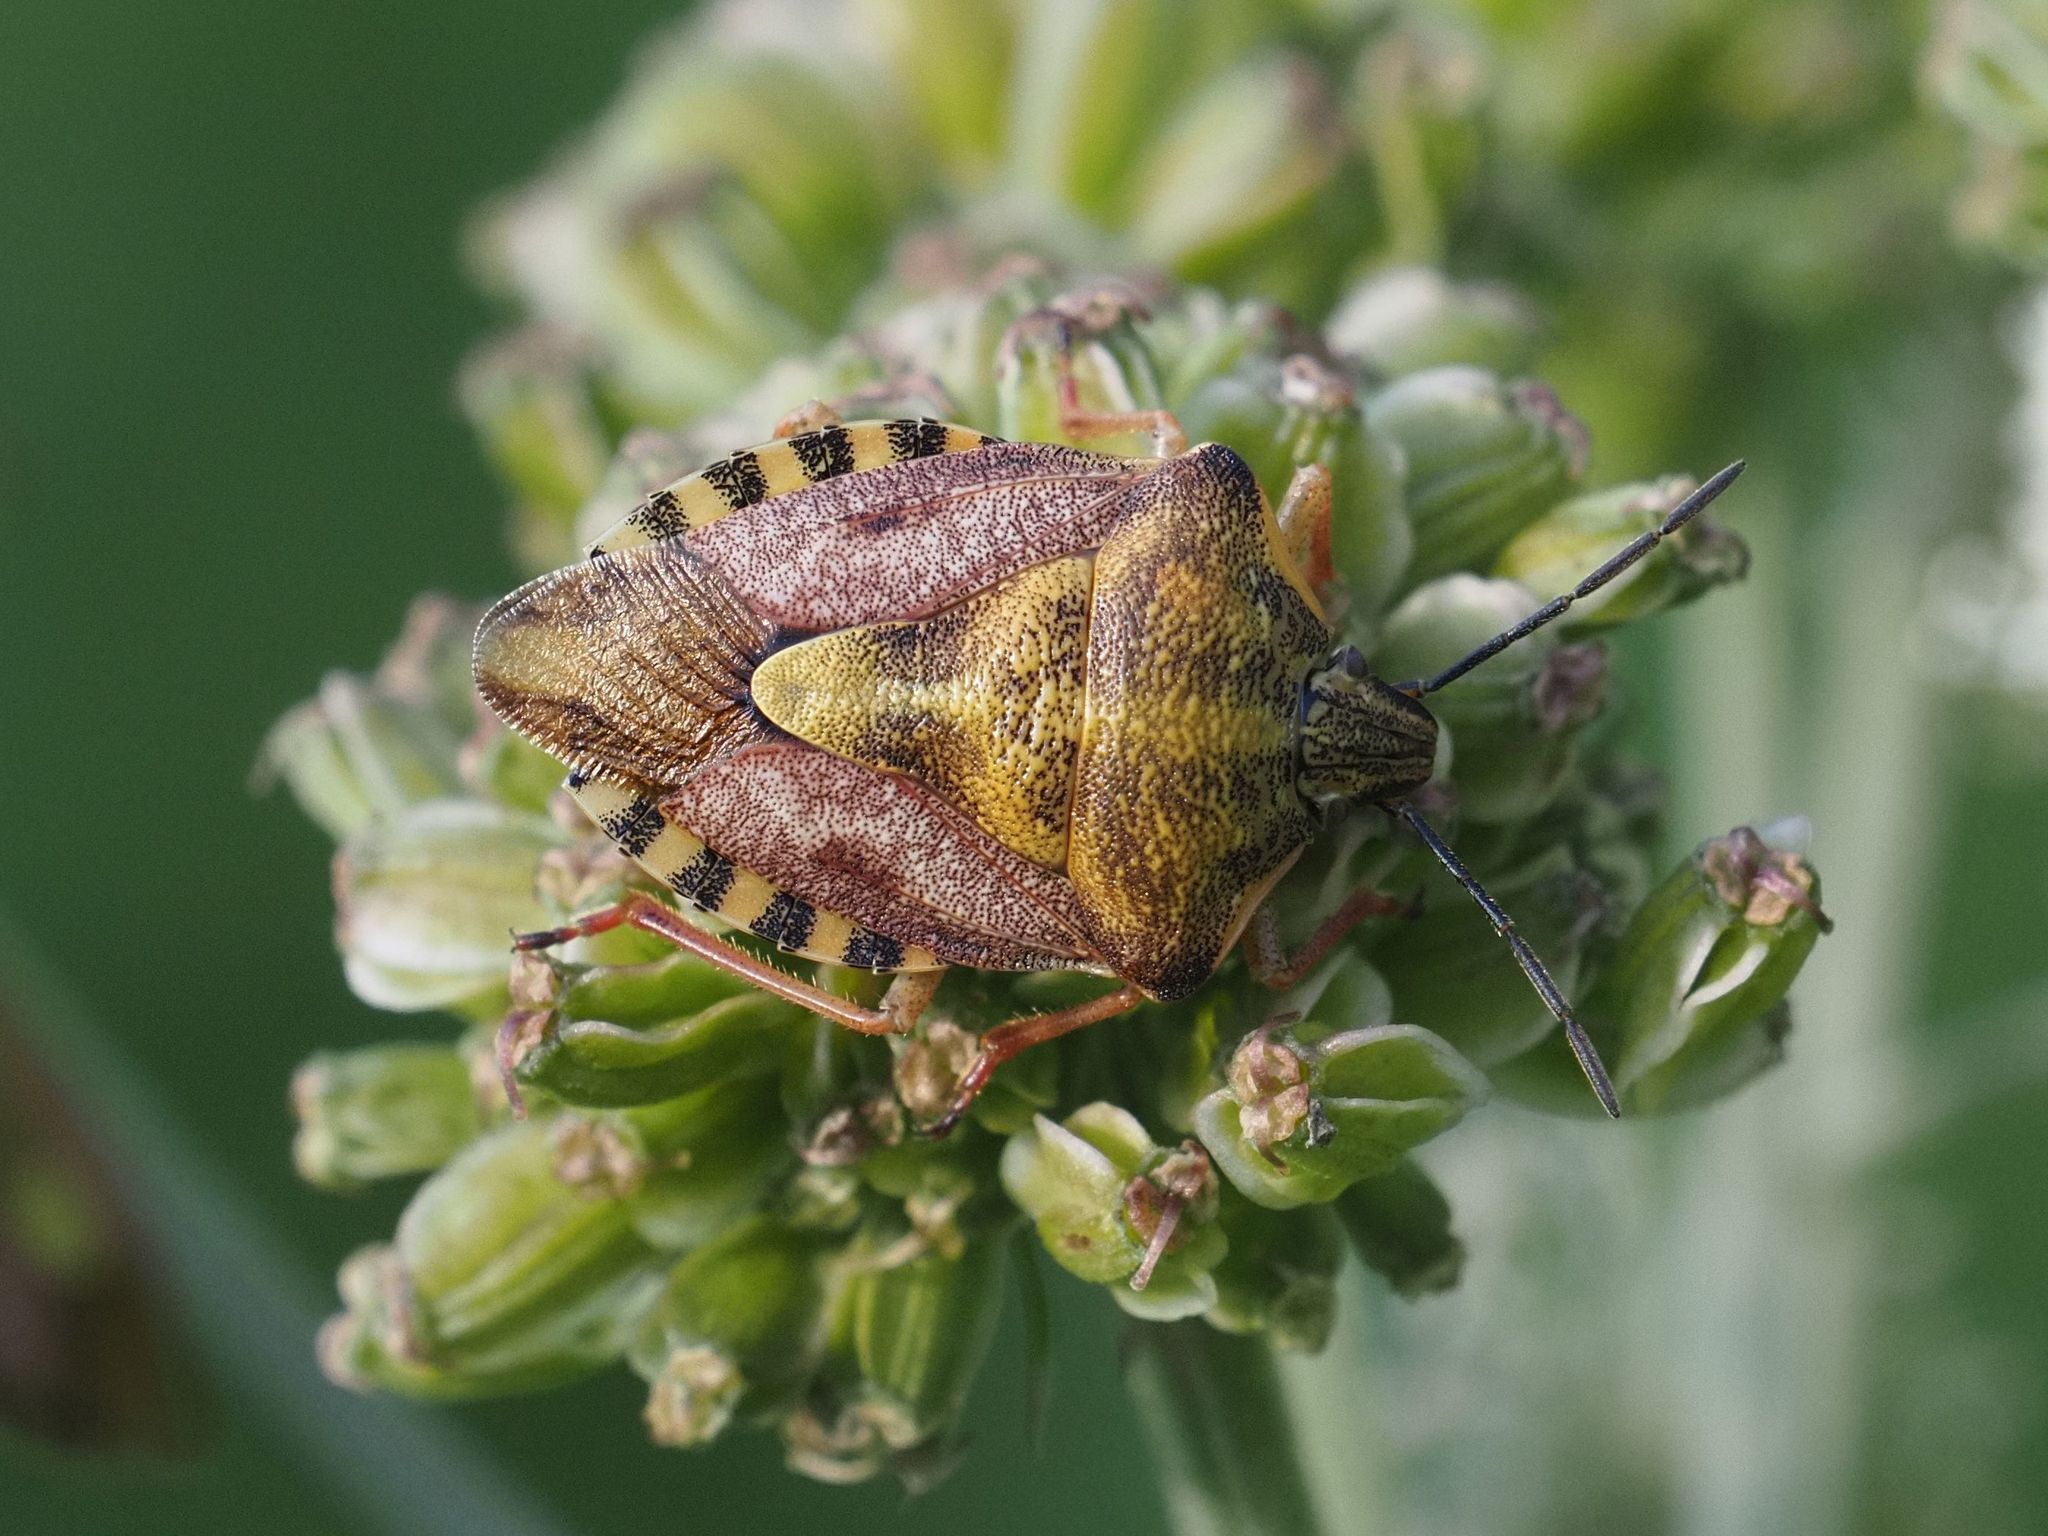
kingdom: Animalia
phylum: Arthropoda
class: Insecta
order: Hemiptera
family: Pentatomidae
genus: Carpocoris
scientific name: Carpocoris purpureipennis
